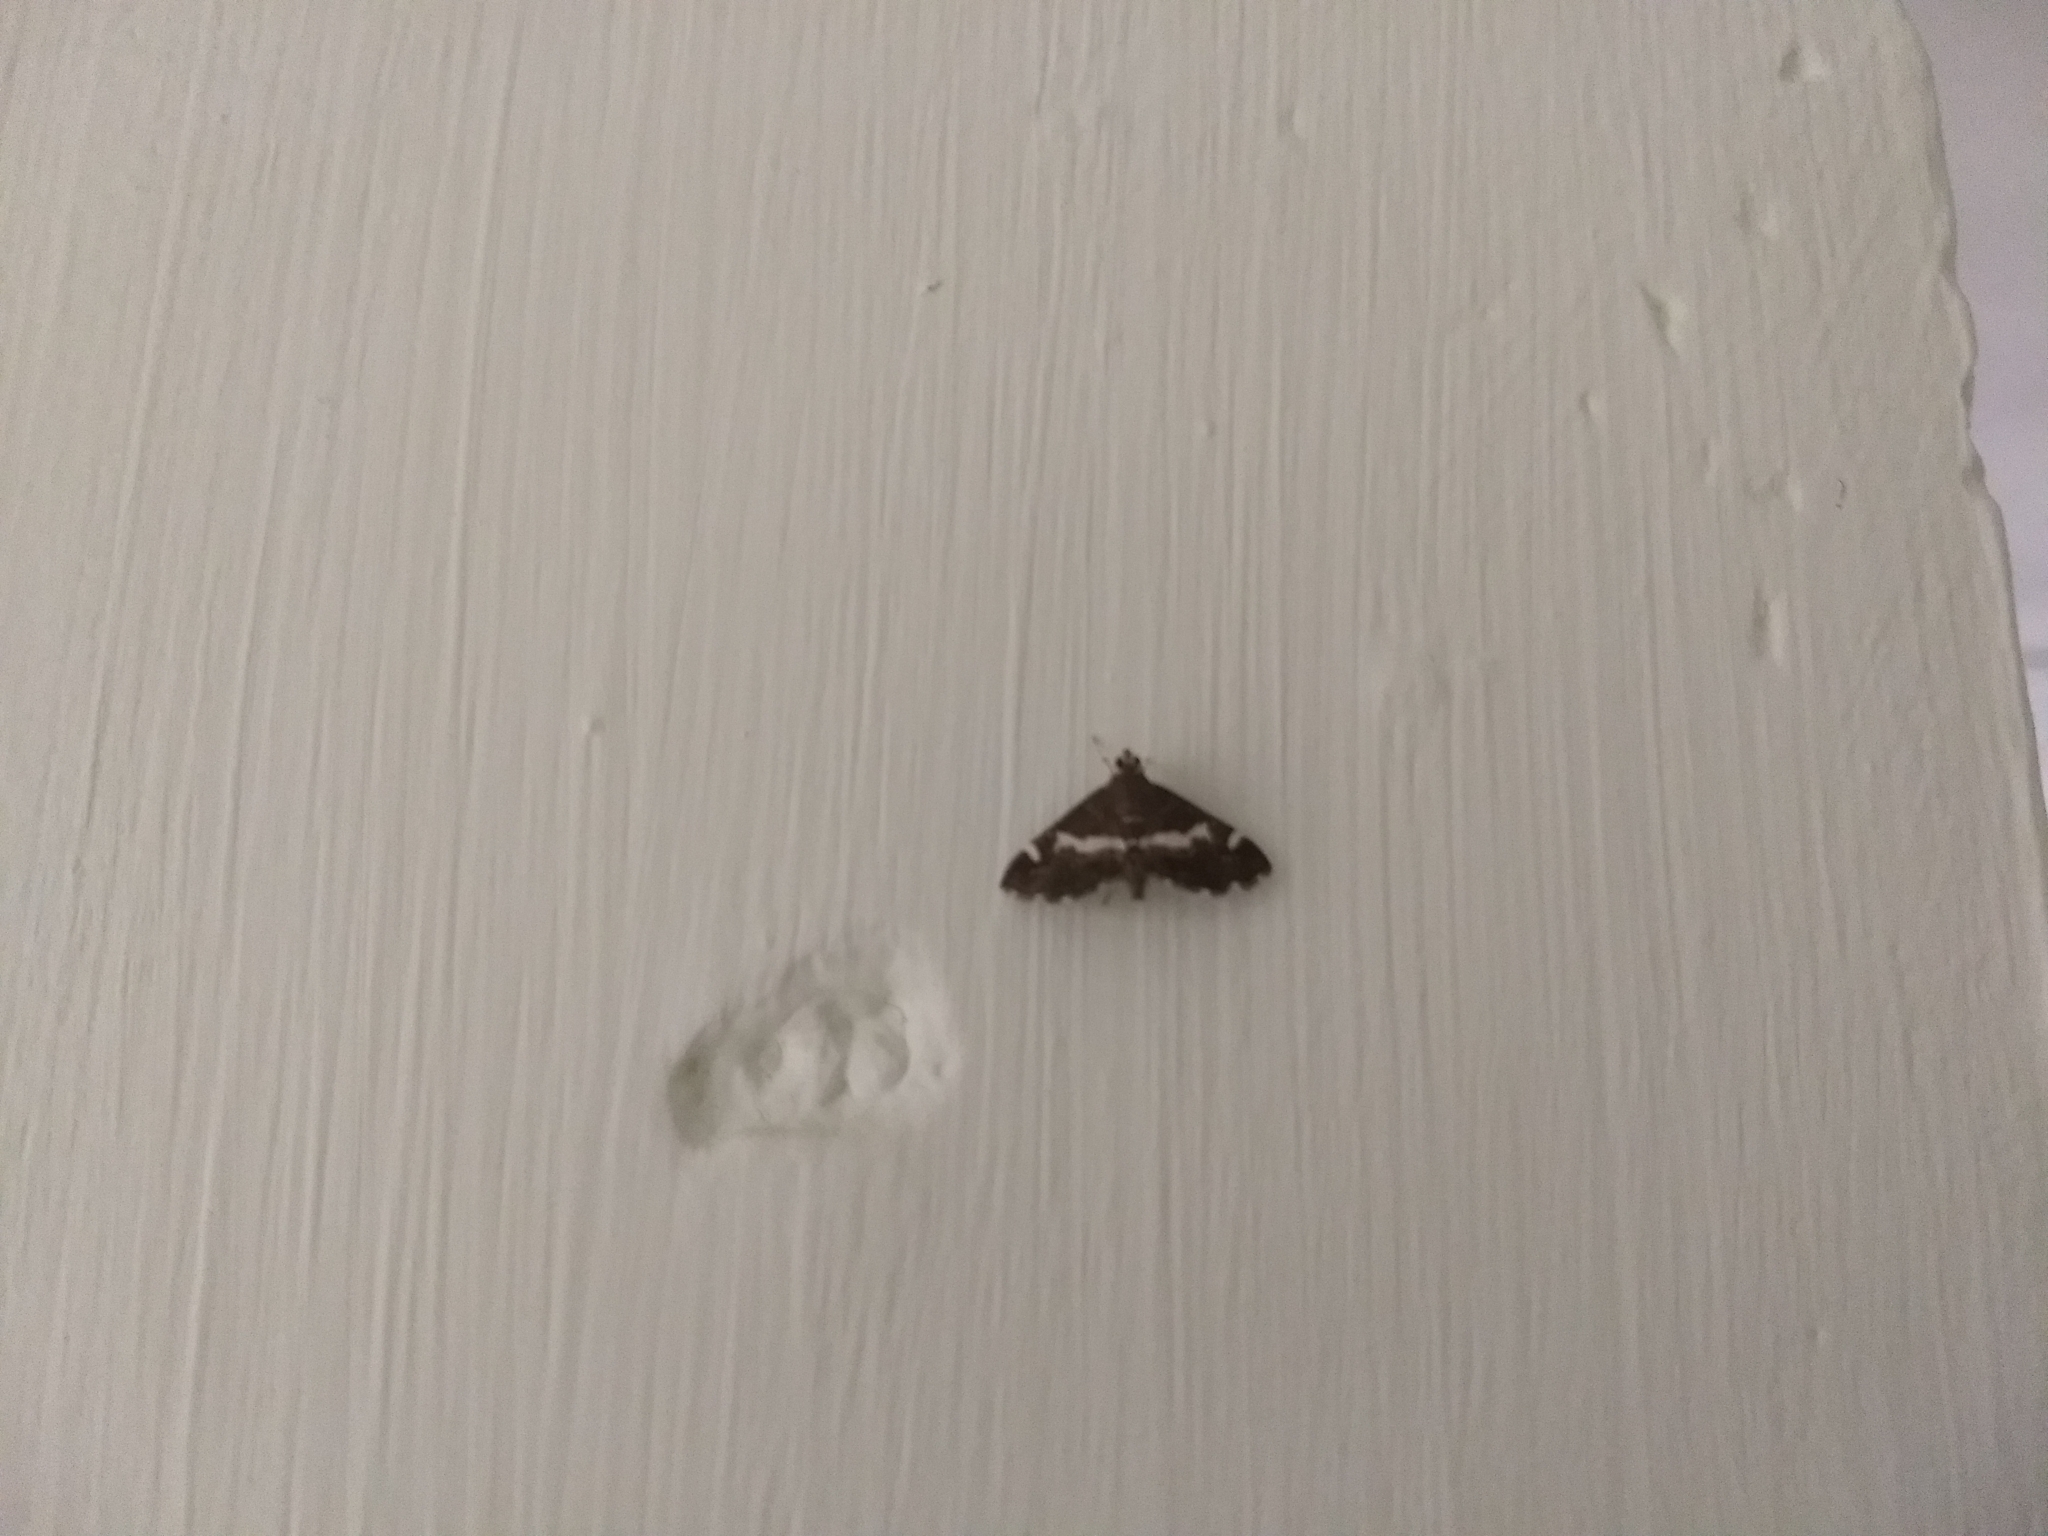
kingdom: Animalia
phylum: Arthropoda
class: Insecta
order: Lepidoptera
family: Crambidae
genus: Spoladea
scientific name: Spoladea recurvalis
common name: Beet webworm moth
